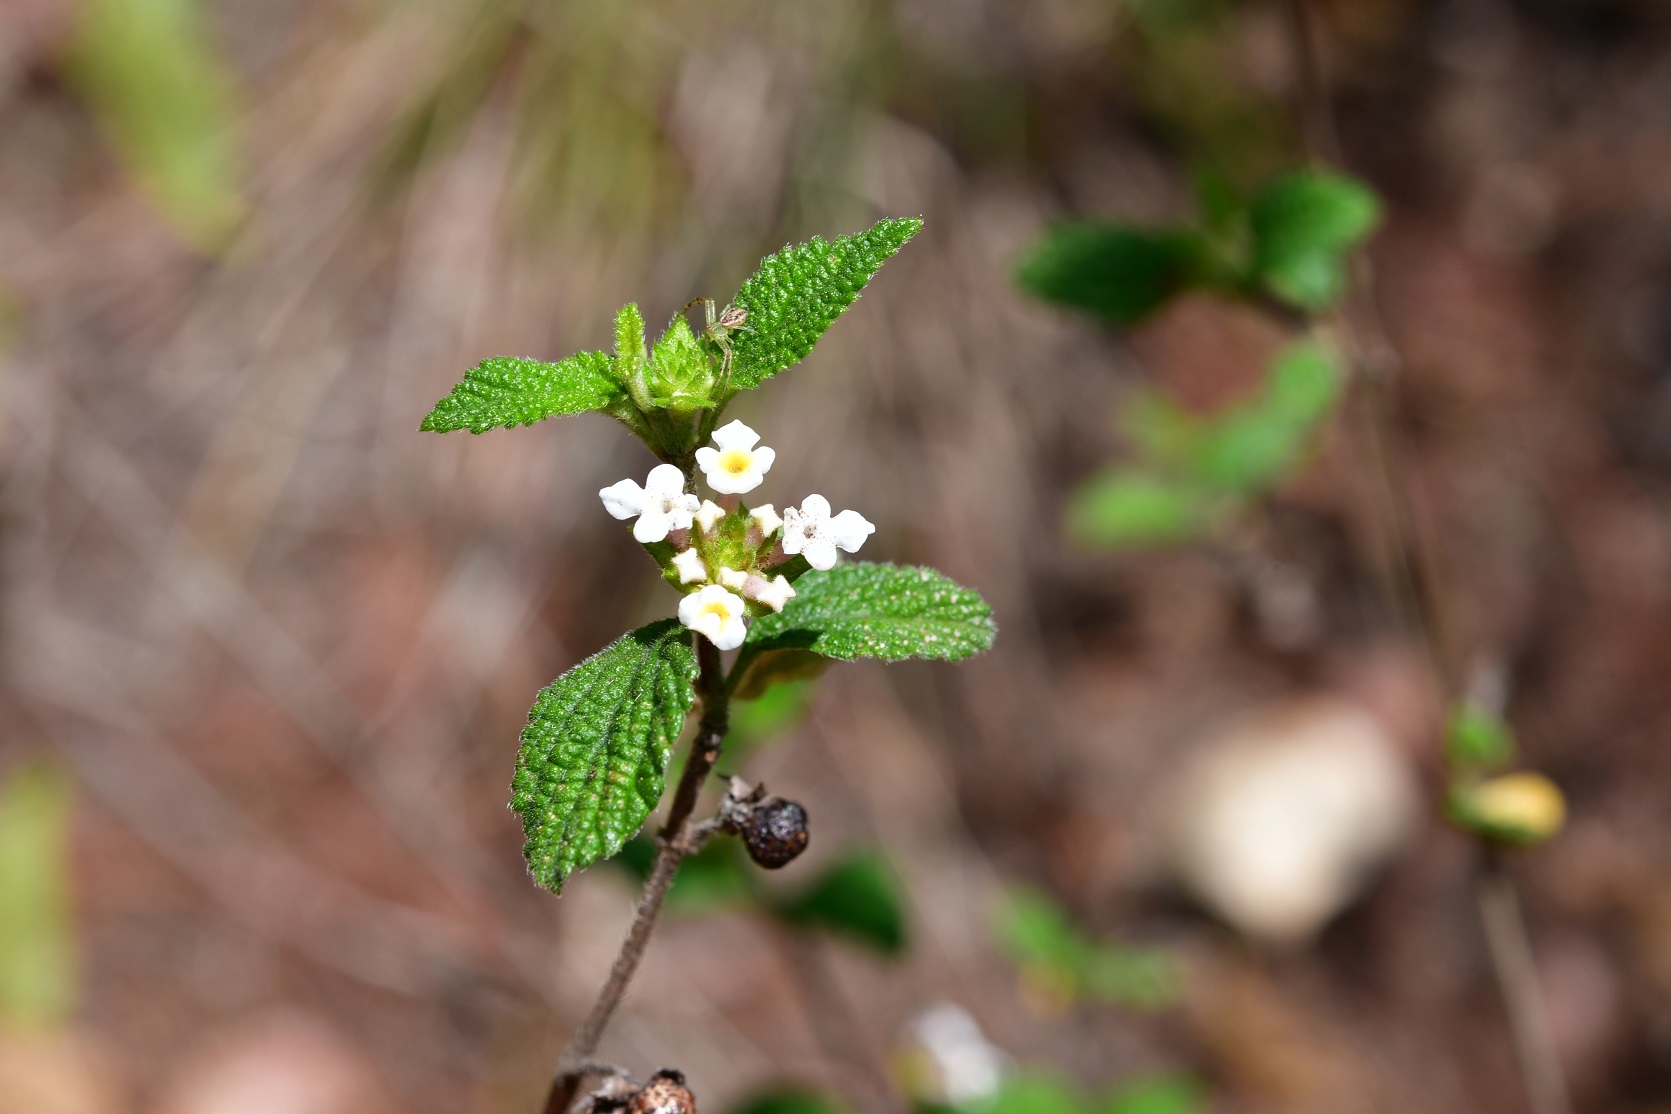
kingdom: Plantae
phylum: Tracheophyta
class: Magnoliopsida
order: Lamiales
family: Verbenaceae
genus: Lantana
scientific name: Lantana hirta
